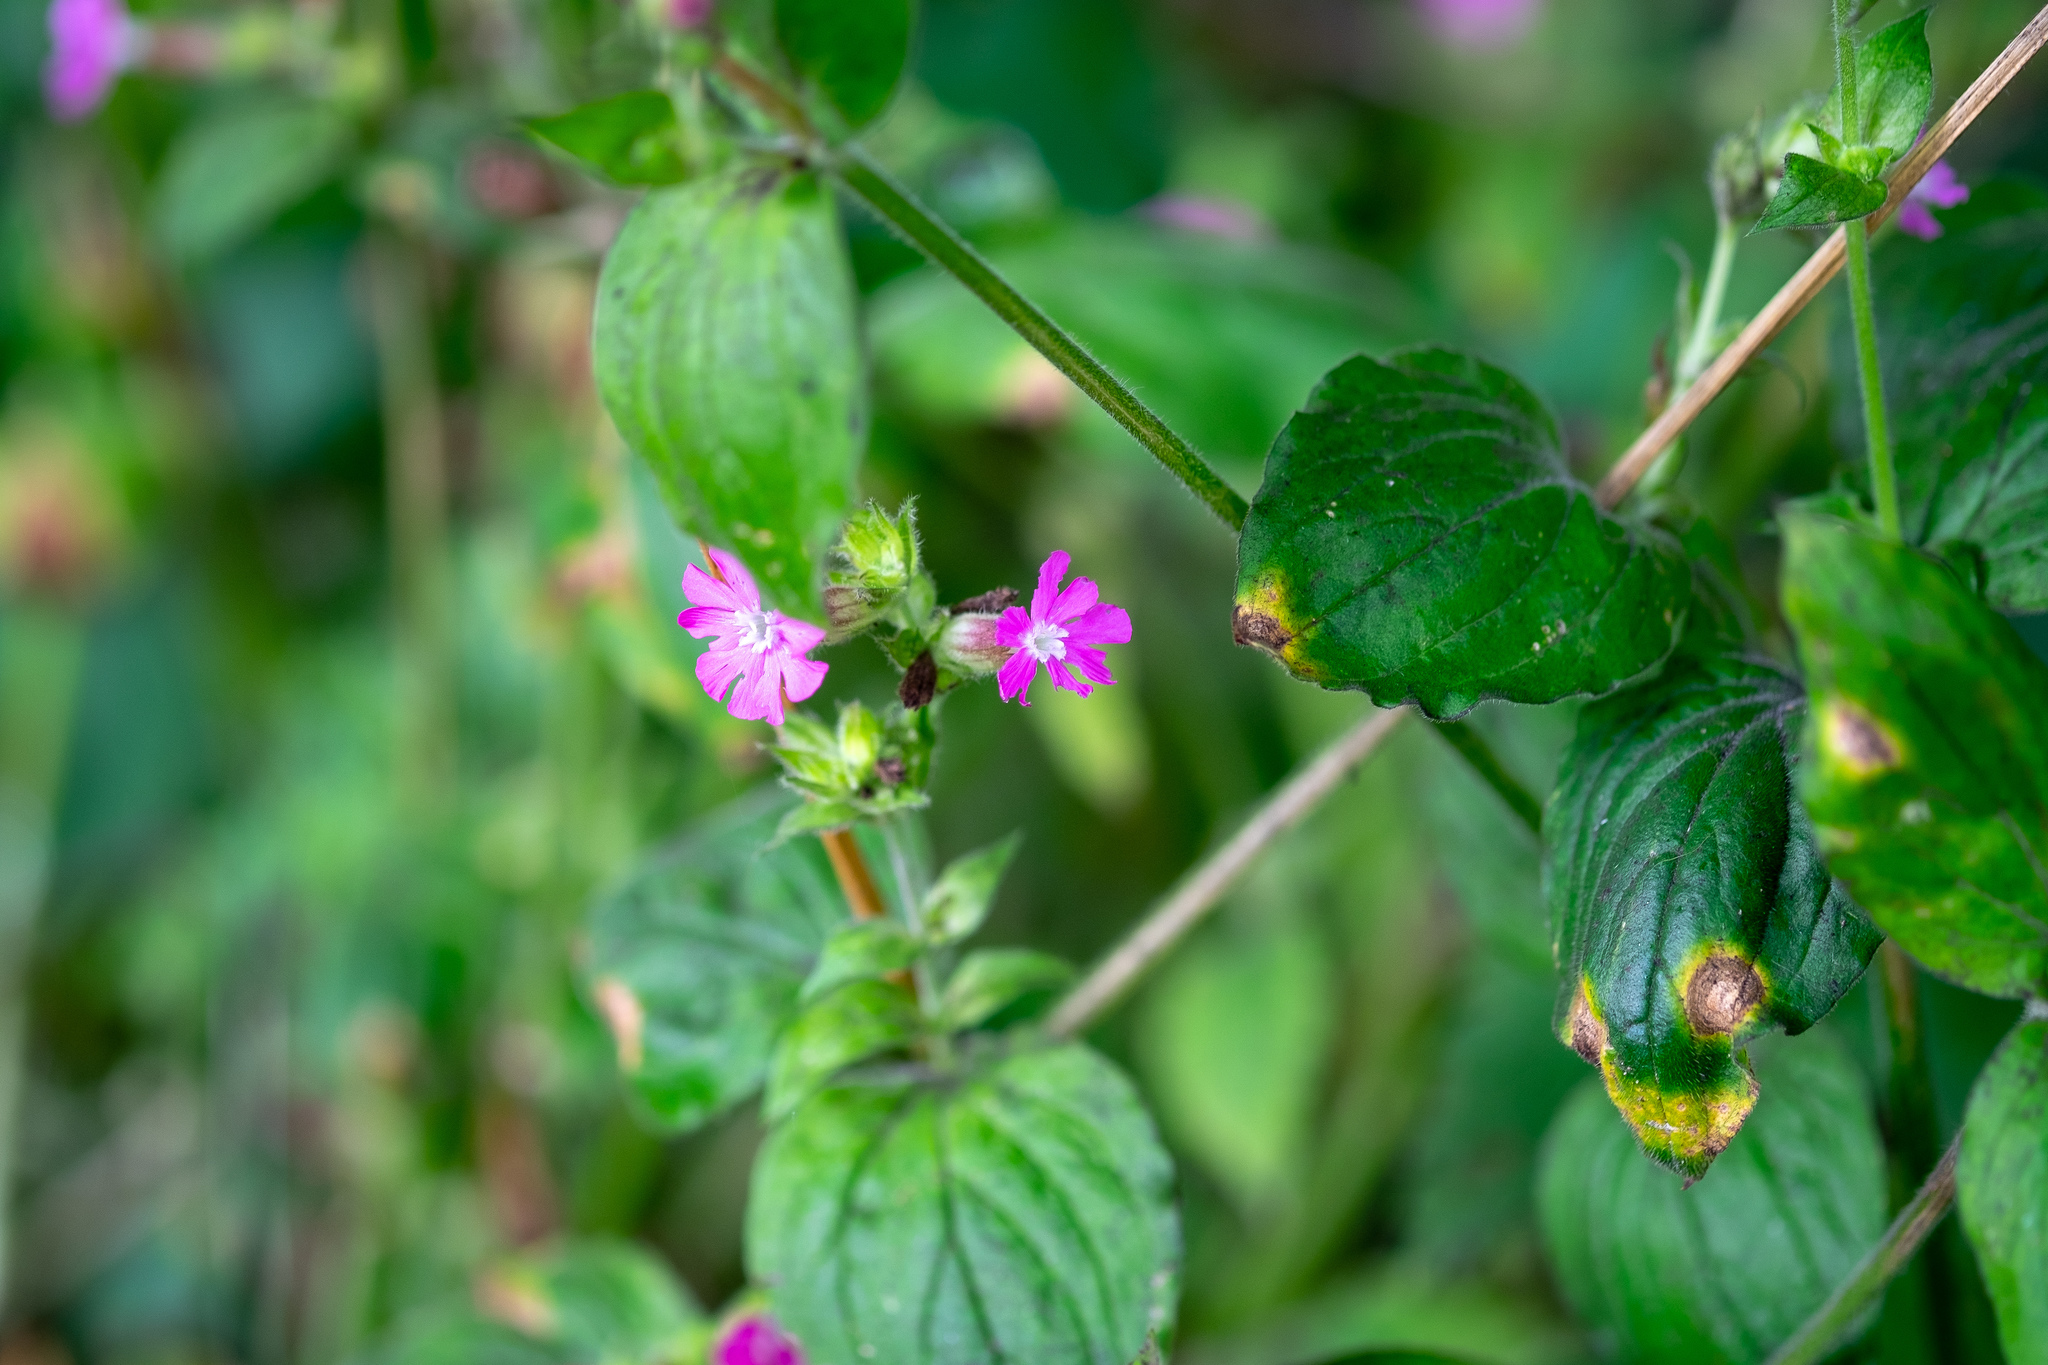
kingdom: Plantae
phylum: Tracheophyta
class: Magnoliopsida
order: Caryophyllales
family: Caryophyllaceae
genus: Silene
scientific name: Silene dioica
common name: Red campion
